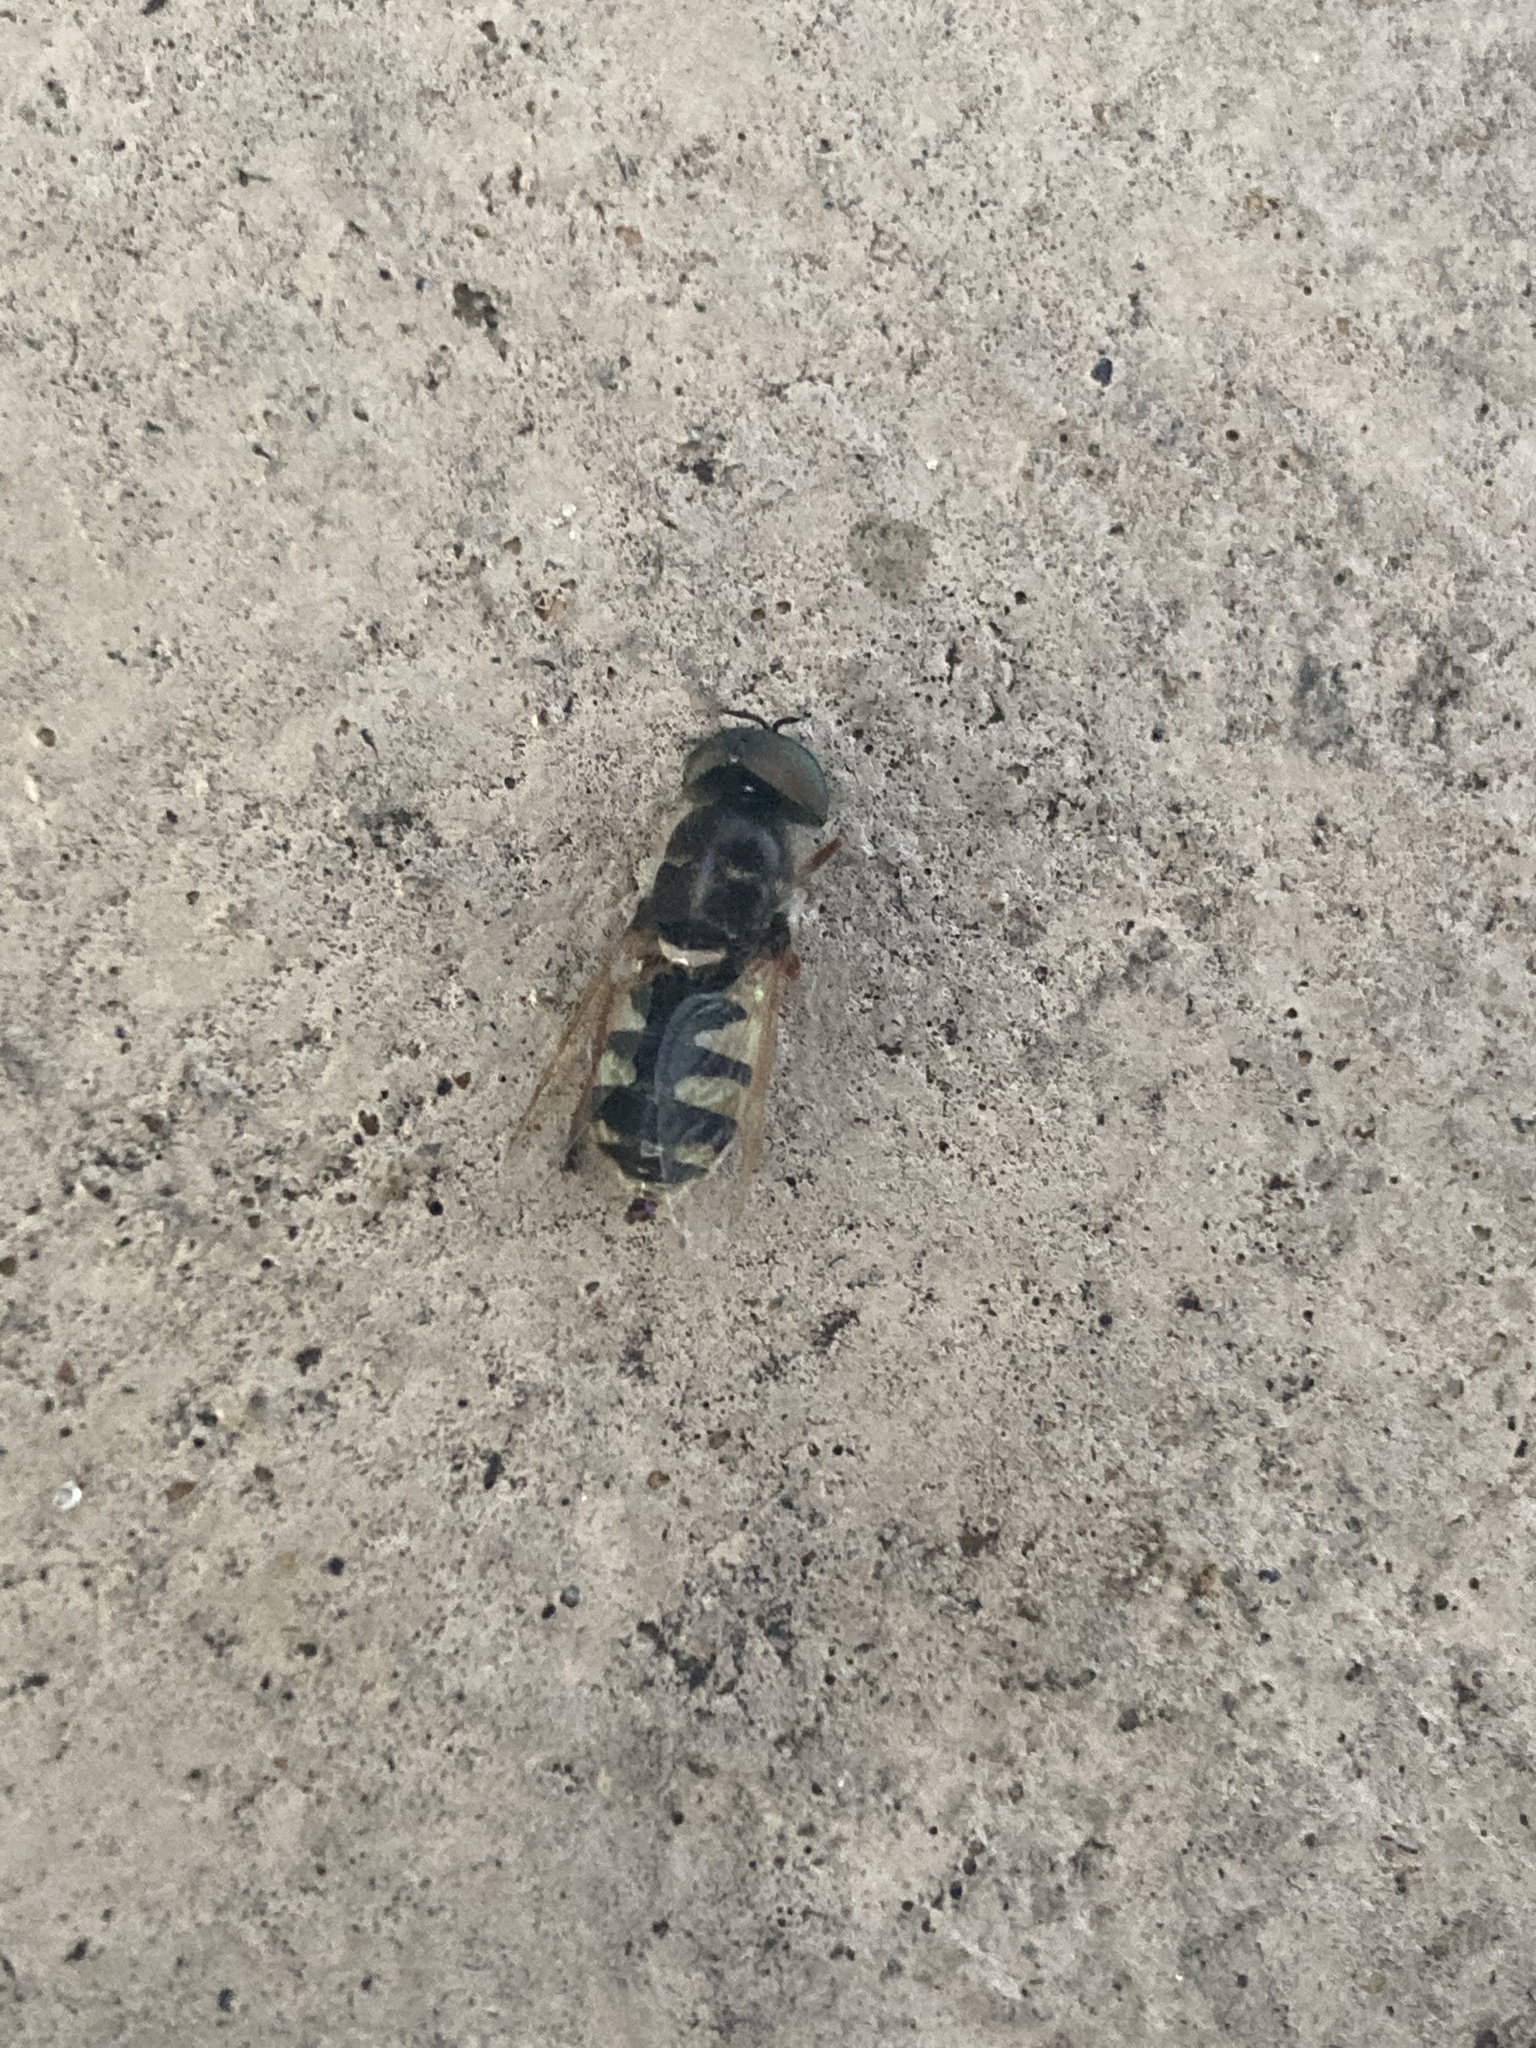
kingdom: Animalia
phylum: Arthropoda
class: Insecta
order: Diptera
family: Stratiomyidae
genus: Odontomyia
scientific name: Odontomyia rufipes
